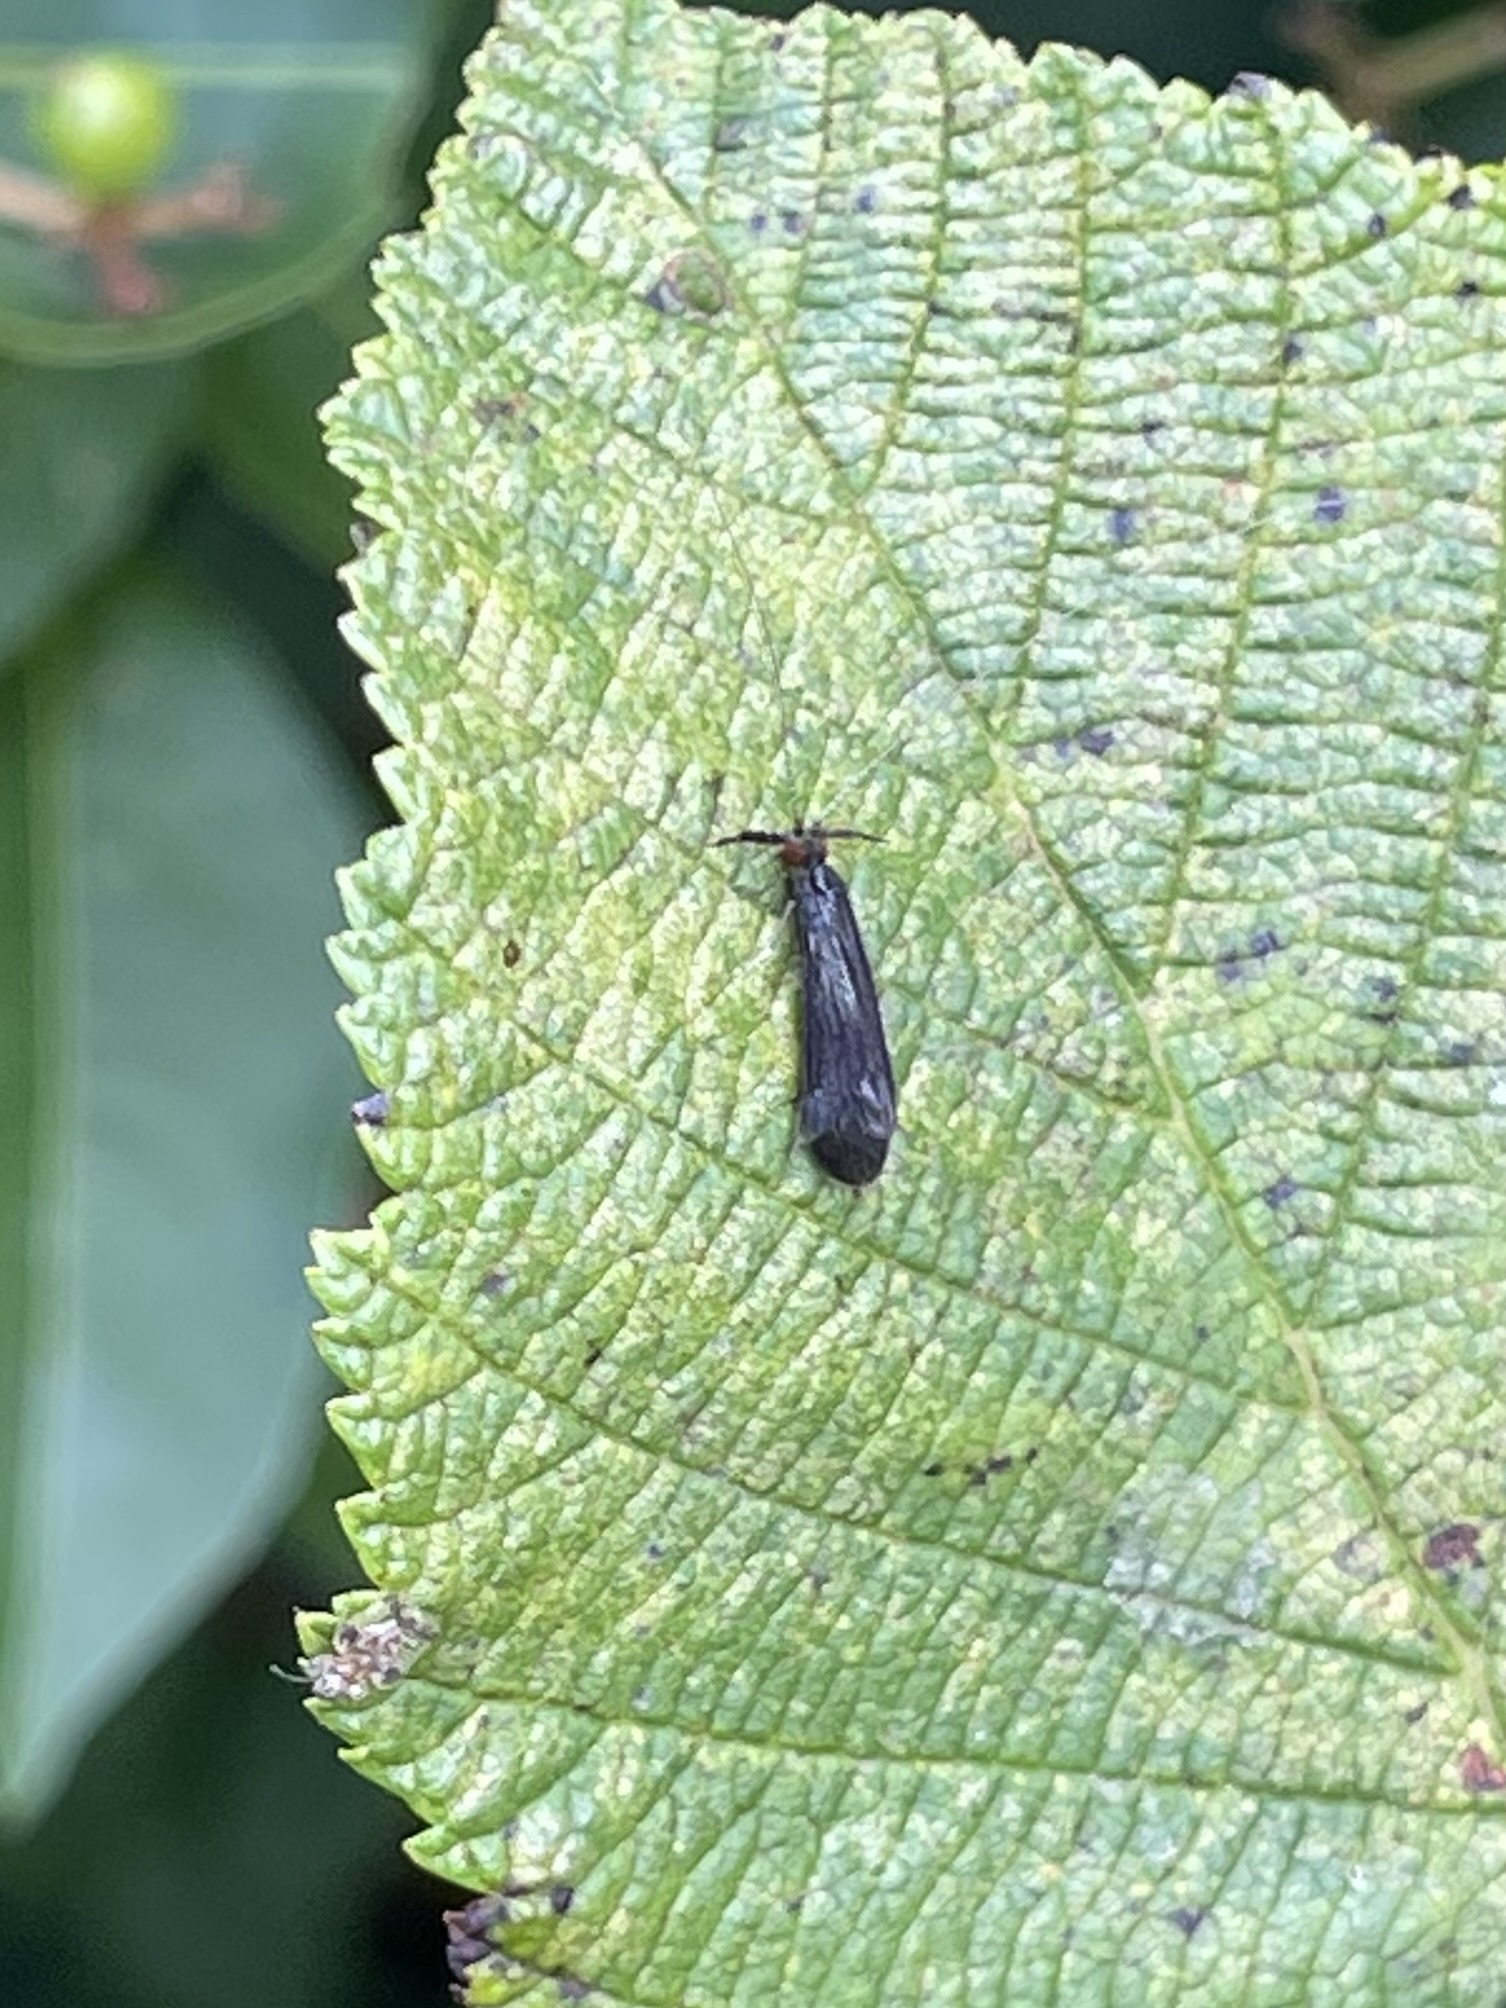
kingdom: Animalia
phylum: Arthropoda
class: Insecta
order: Trichoptera
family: Leptoceridae
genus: Mystacides
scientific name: Mystacides sepulchralis
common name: Black dancer caddisfly
